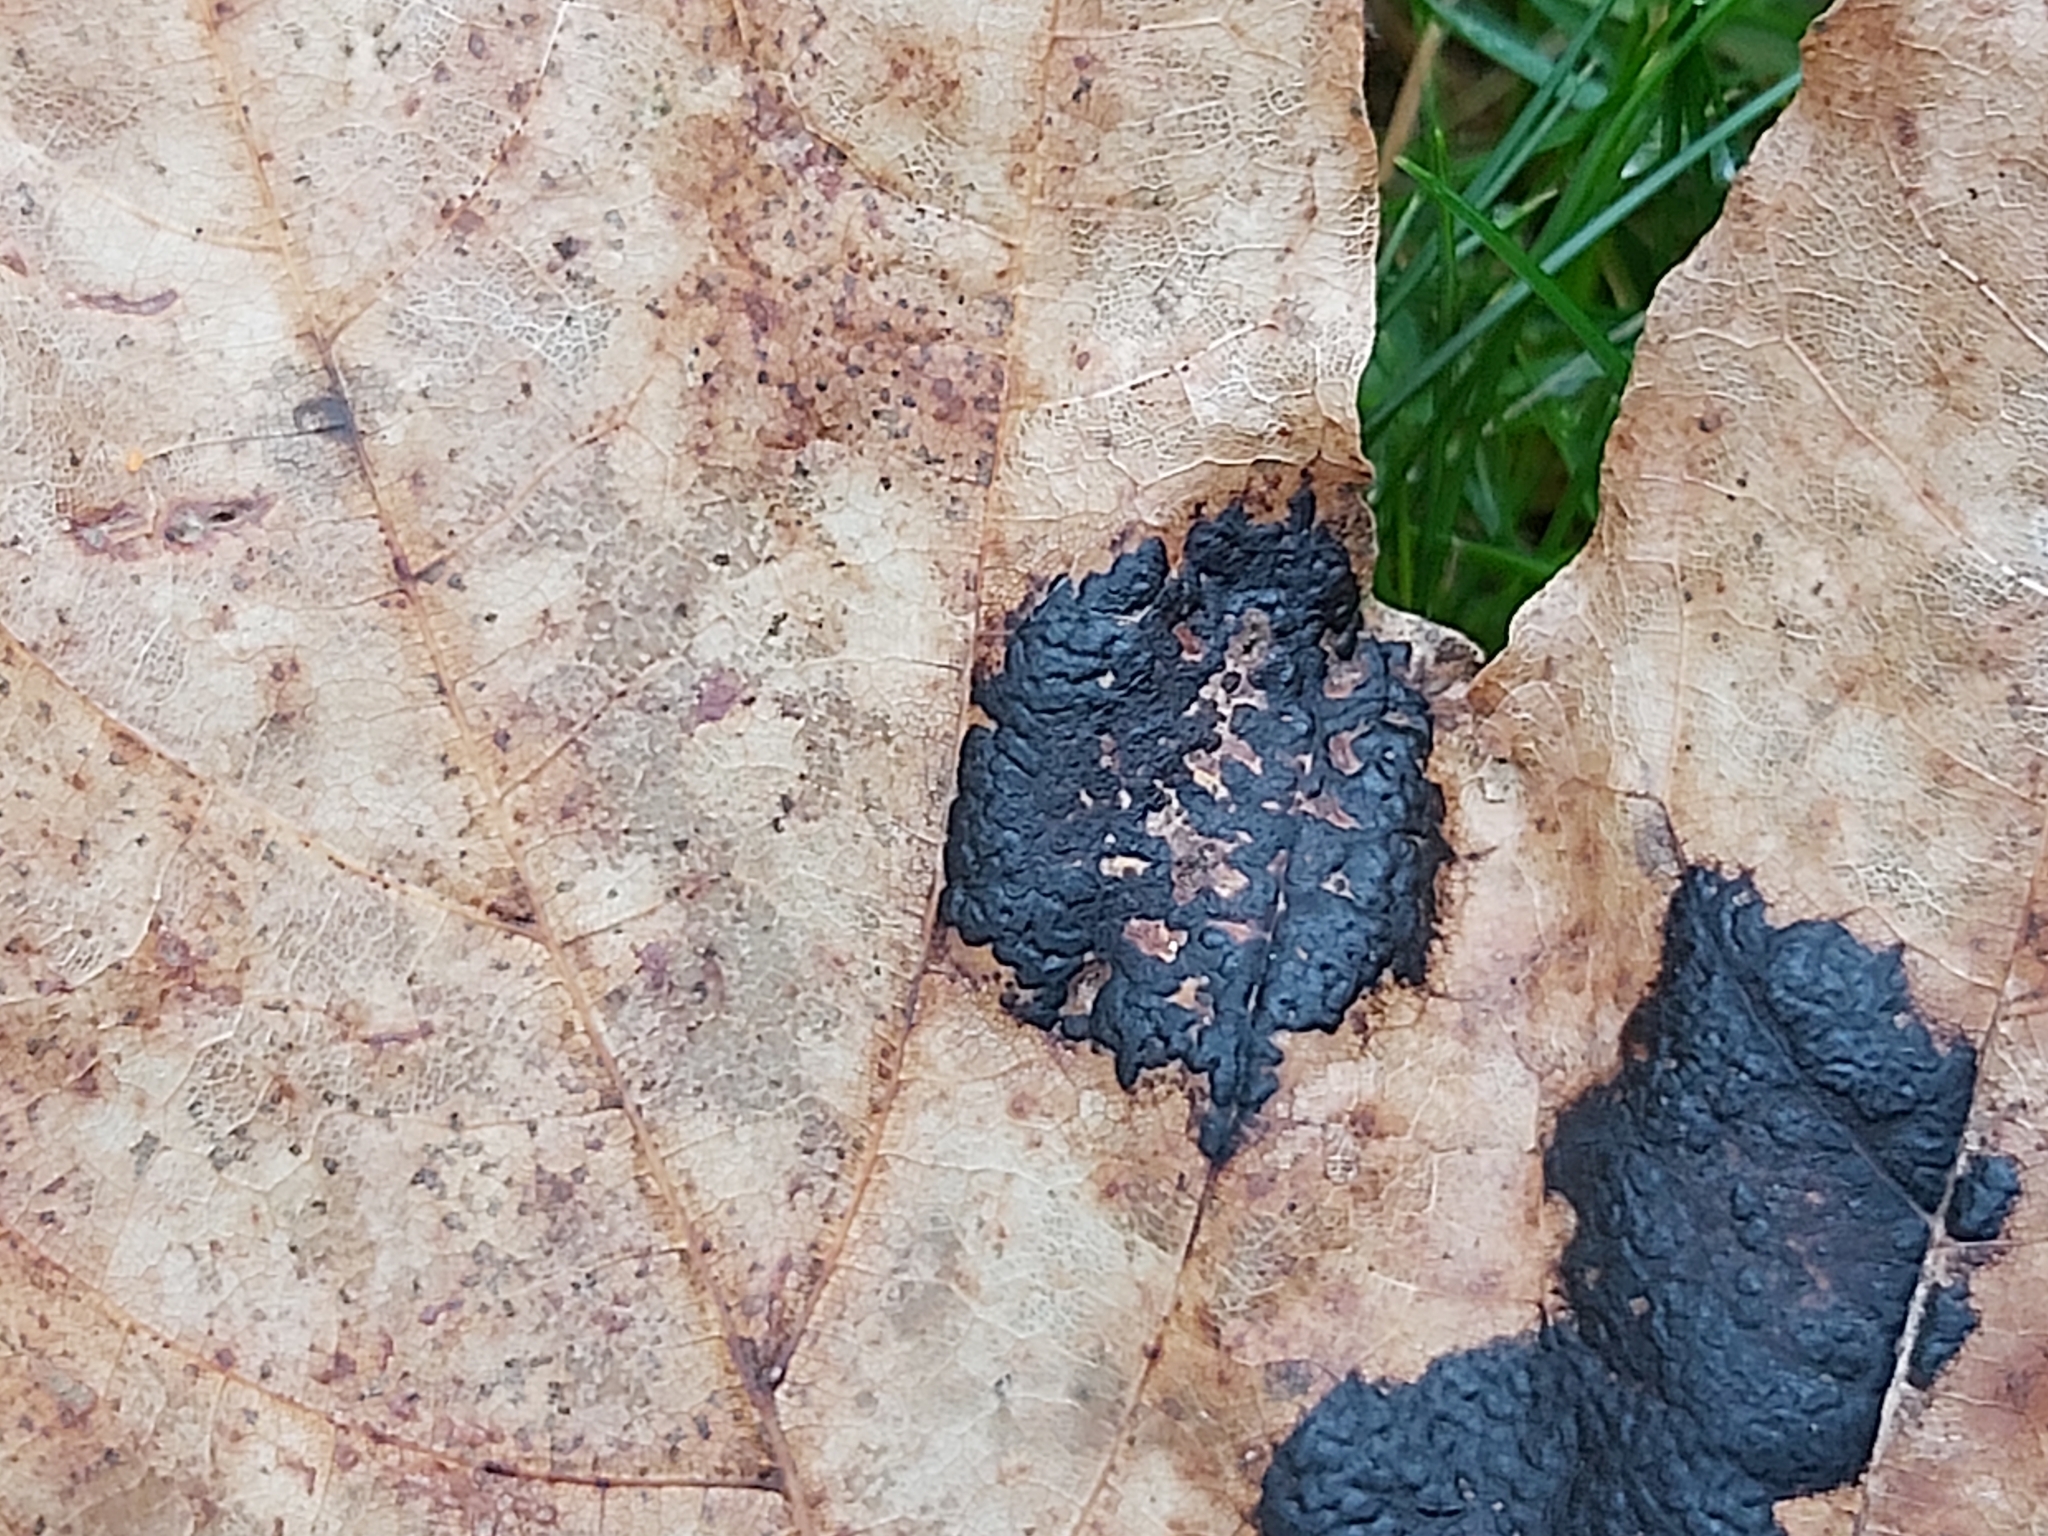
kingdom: Fungi
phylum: Ascomycota
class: Leotiomycetes
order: Rhytismatales
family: Rhytismataceae
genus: Rhytisma
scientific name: Rhytisma acerinum
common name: European tar spot
